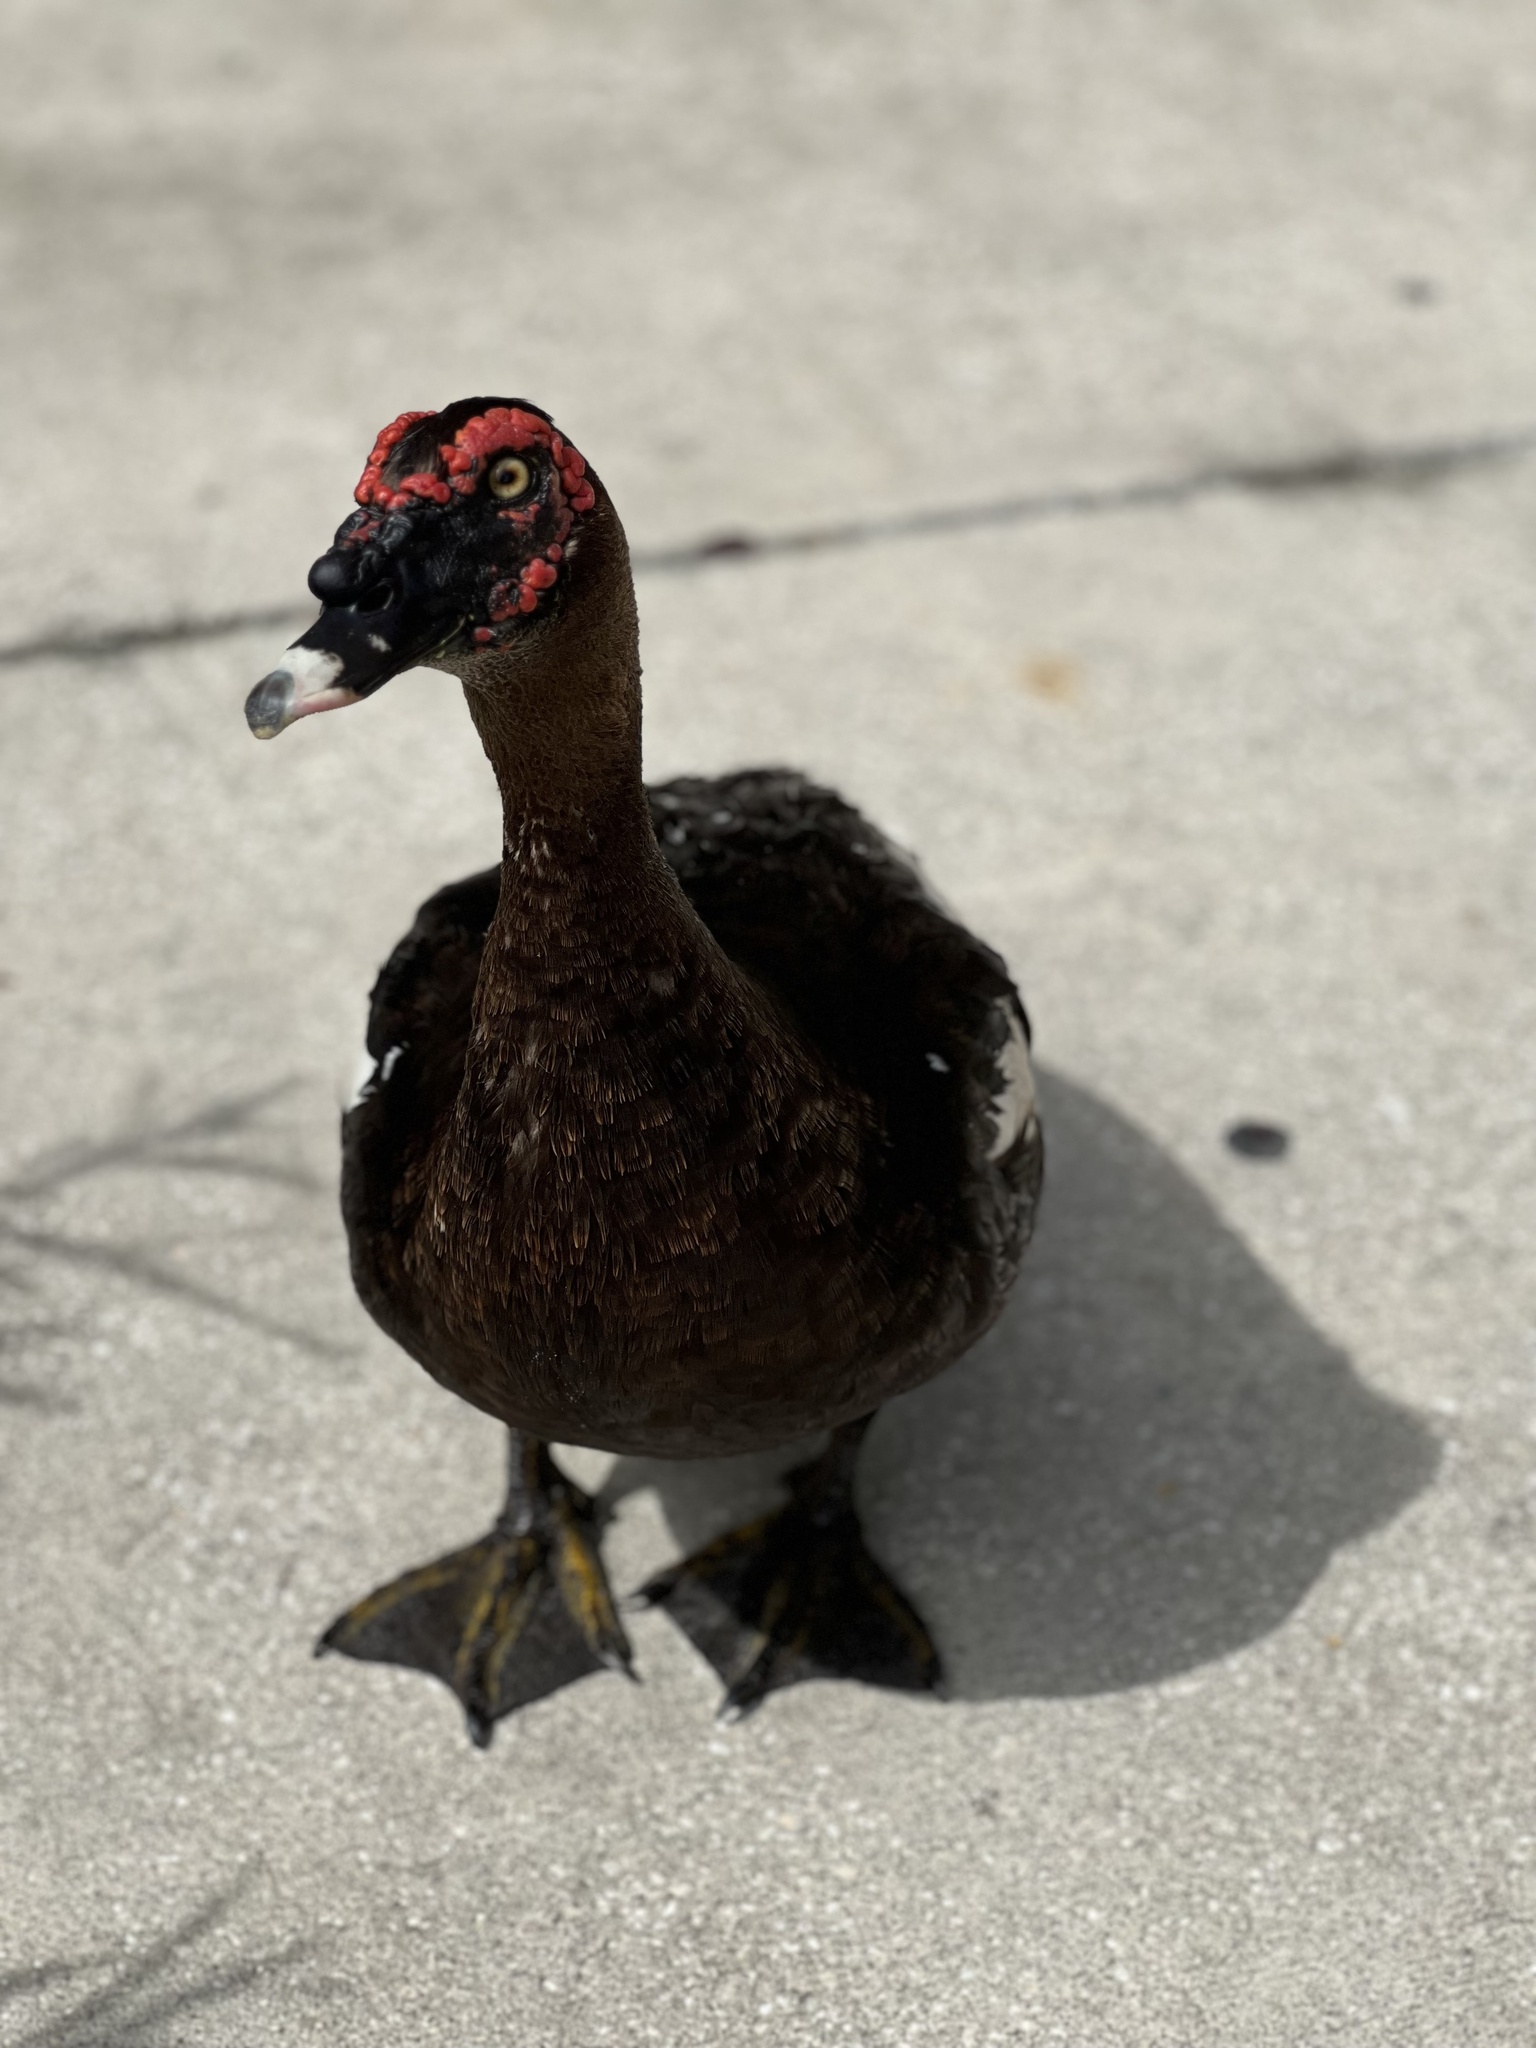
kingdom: Animalia
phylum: Chordata
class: Aves
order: Anseriformes
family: Anatidae
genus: Cairina
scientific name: Cairina moschata
